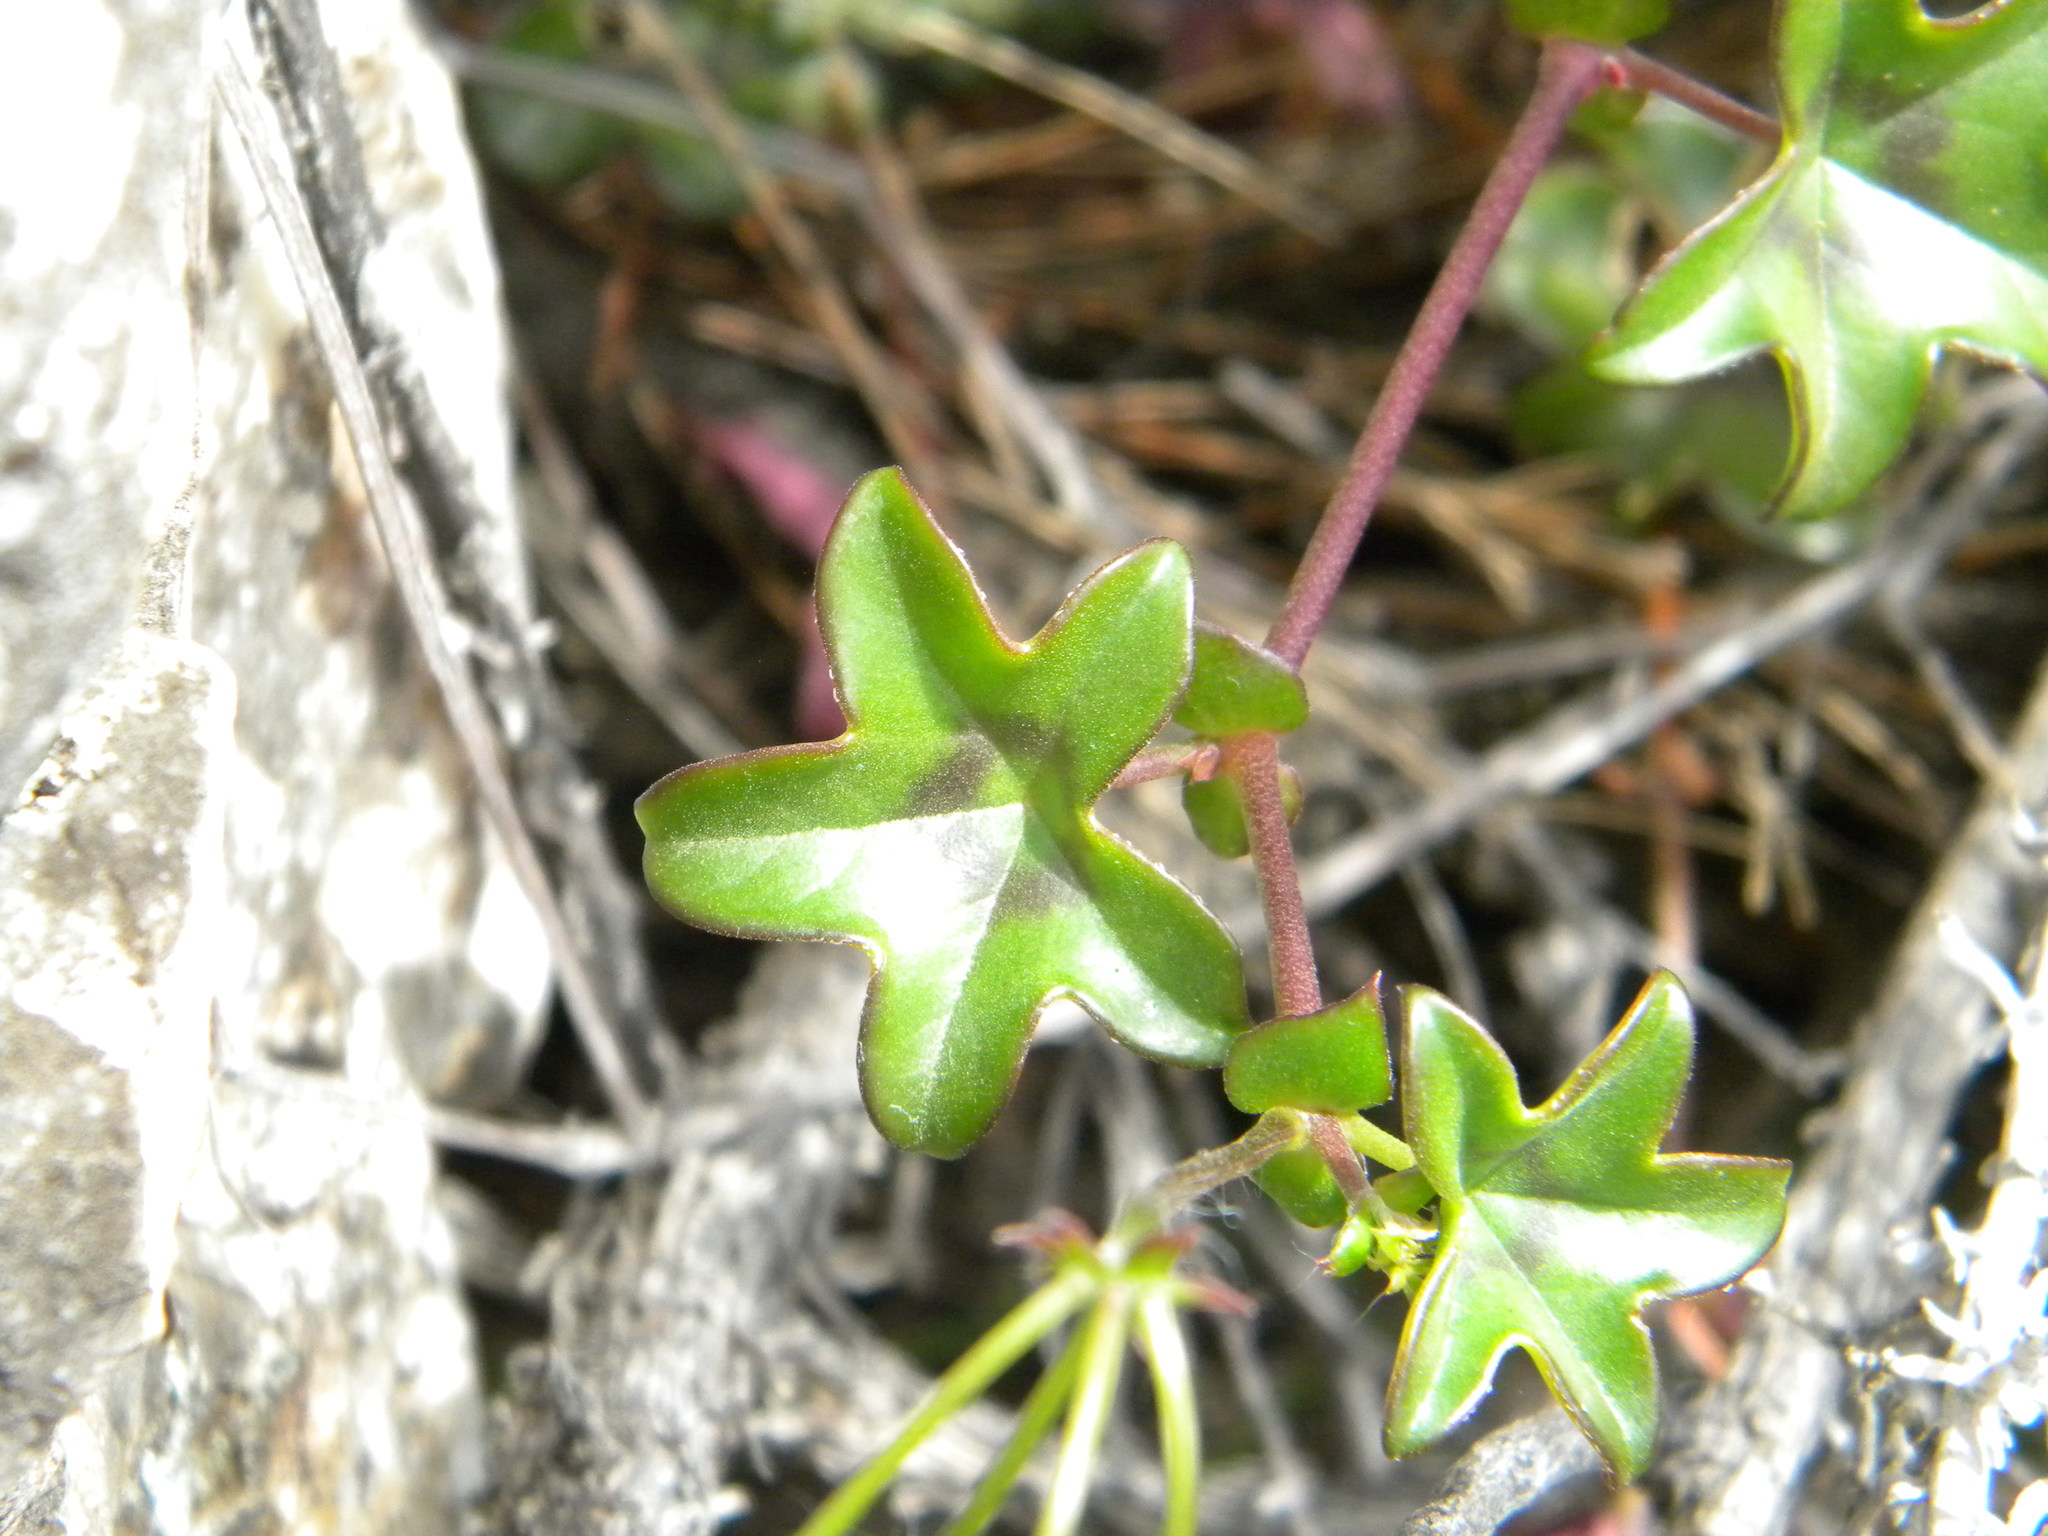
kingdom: Plantae
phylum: Tracheophyta
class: Magnoliopsida
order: Geraniales
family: Geraniaceae
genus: Pelargonium
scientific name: Pelargonium peltatum
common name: Ivyleaf geranium
